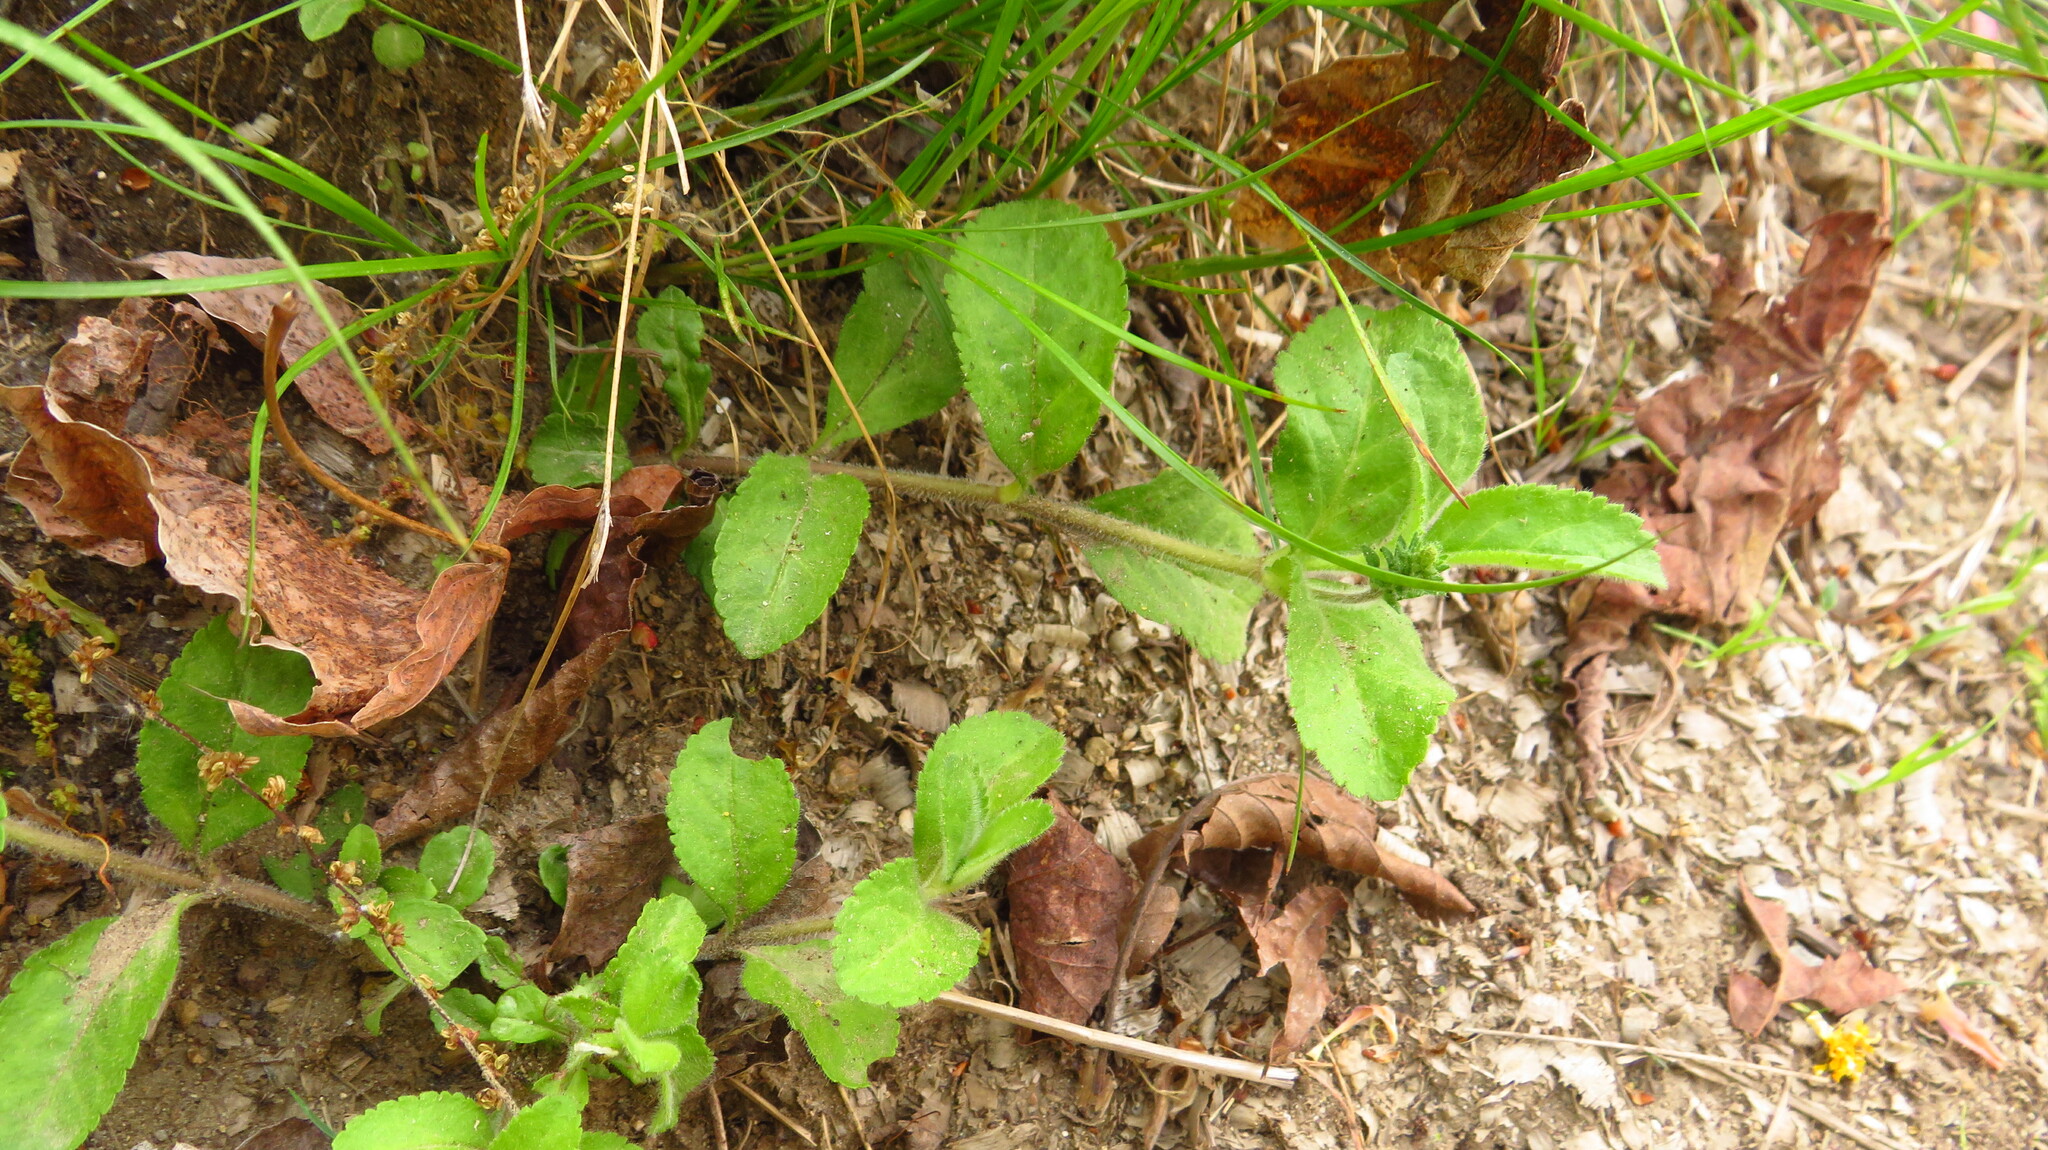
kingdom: Plantae
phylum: Tracheophyta
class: Magnoliopsida
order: Lamiales
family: Plantaginaceae
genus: Veronica
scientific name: Veronica officinalis
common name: Common speedwell
